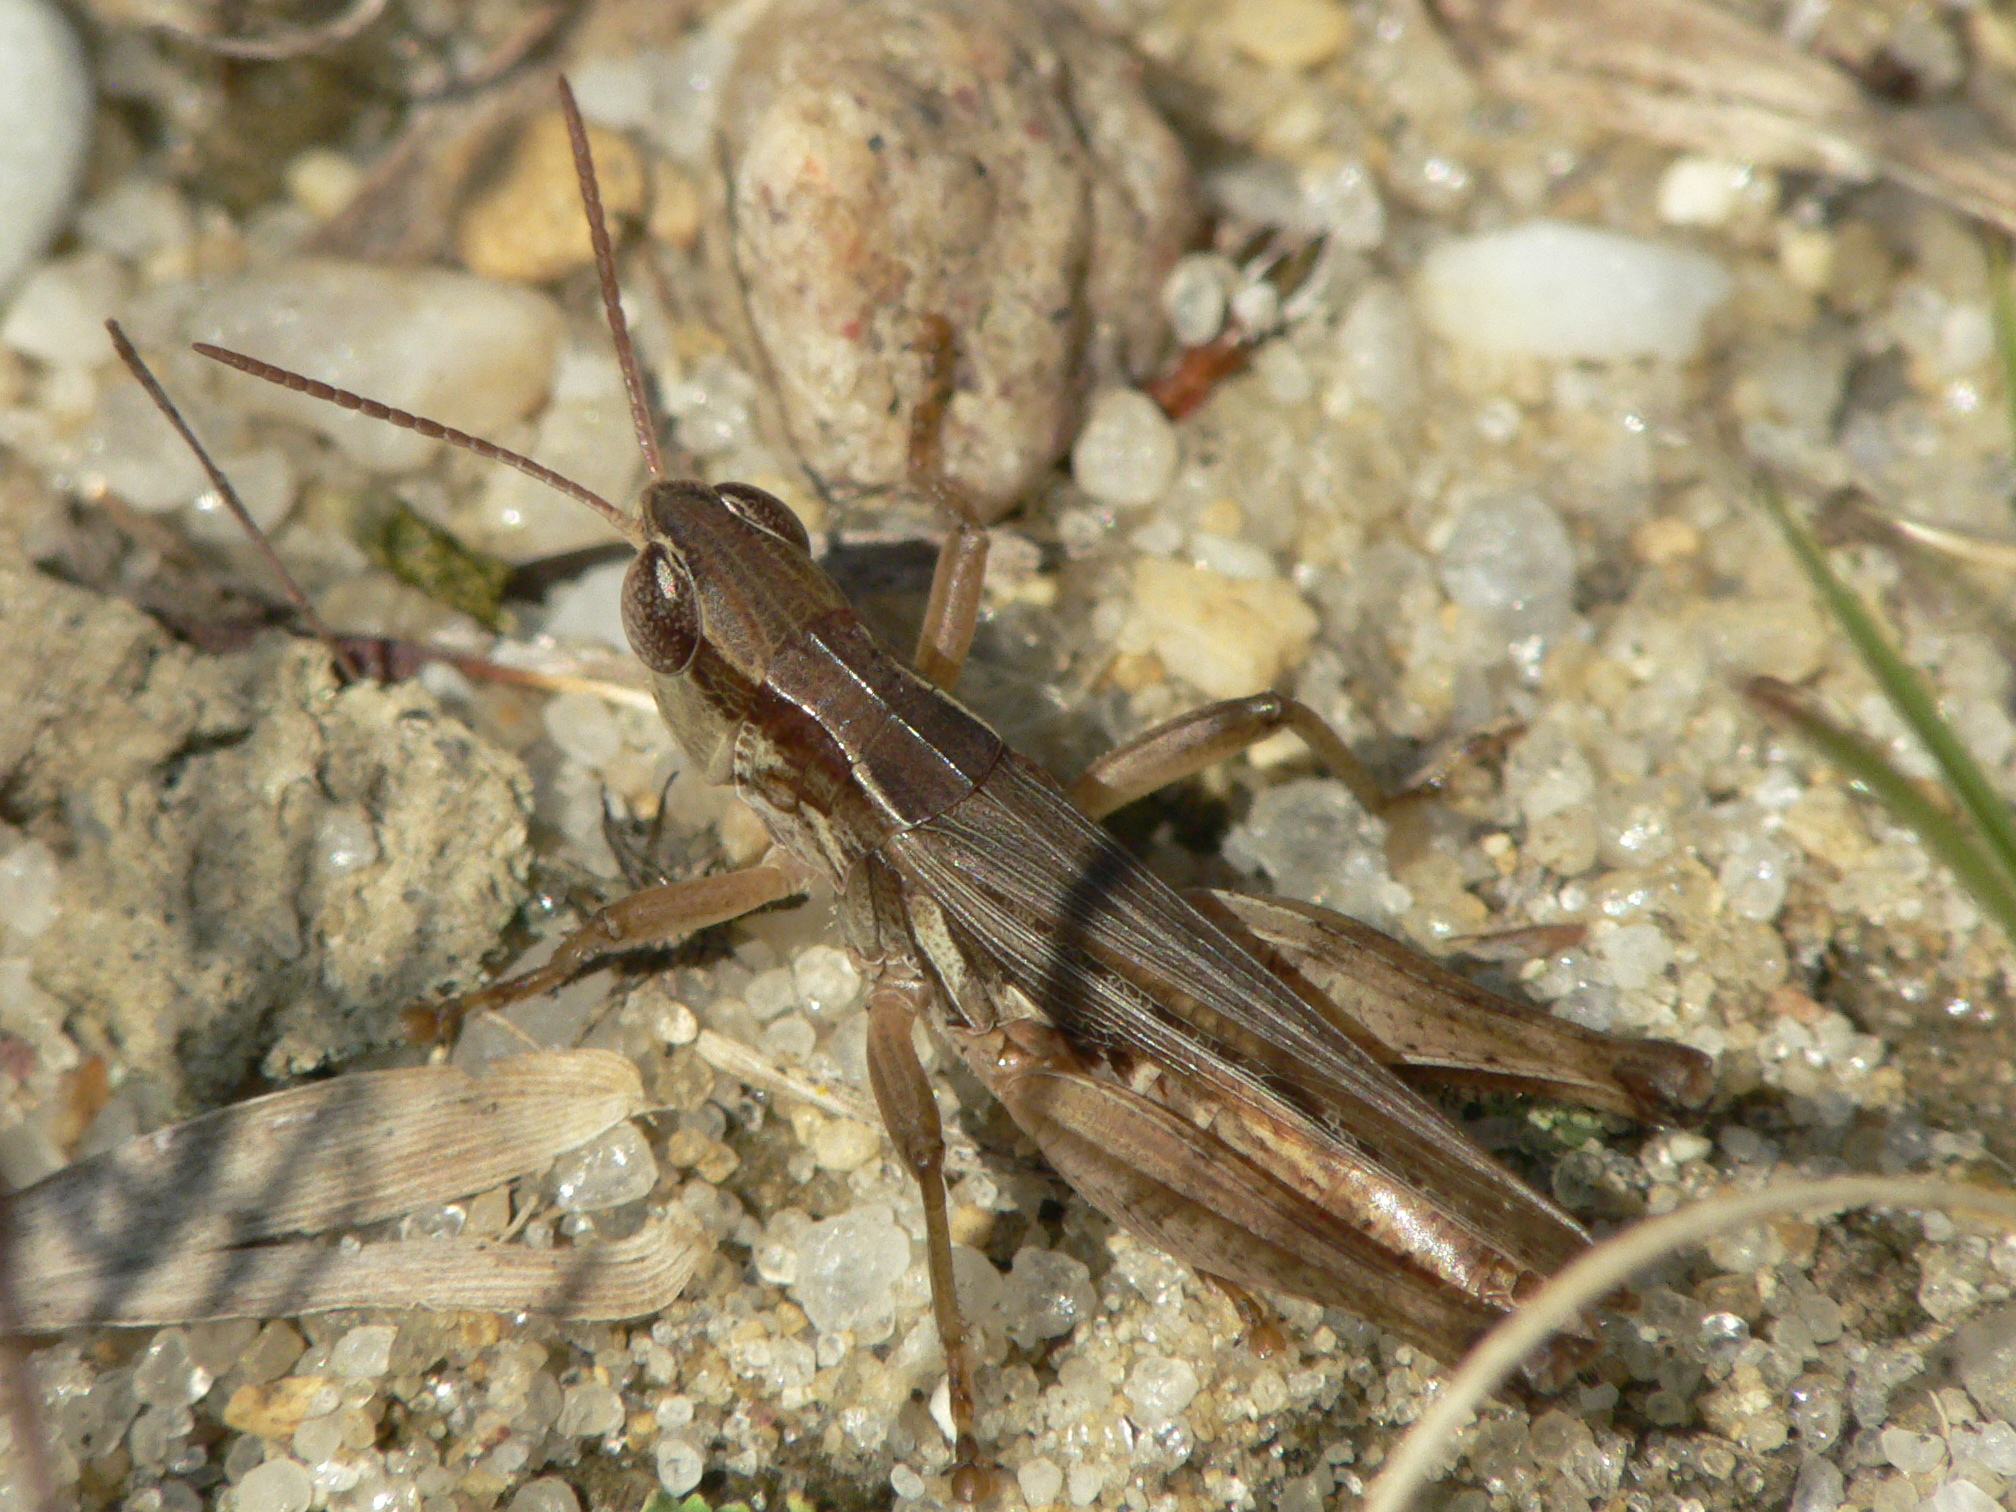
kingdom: Animalia
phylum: Arthropoda
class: Insecta
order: Orthoptera
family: Acrididae
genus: Orphulella
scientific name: Orphulella speciosa
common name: Pasture grasshopper
